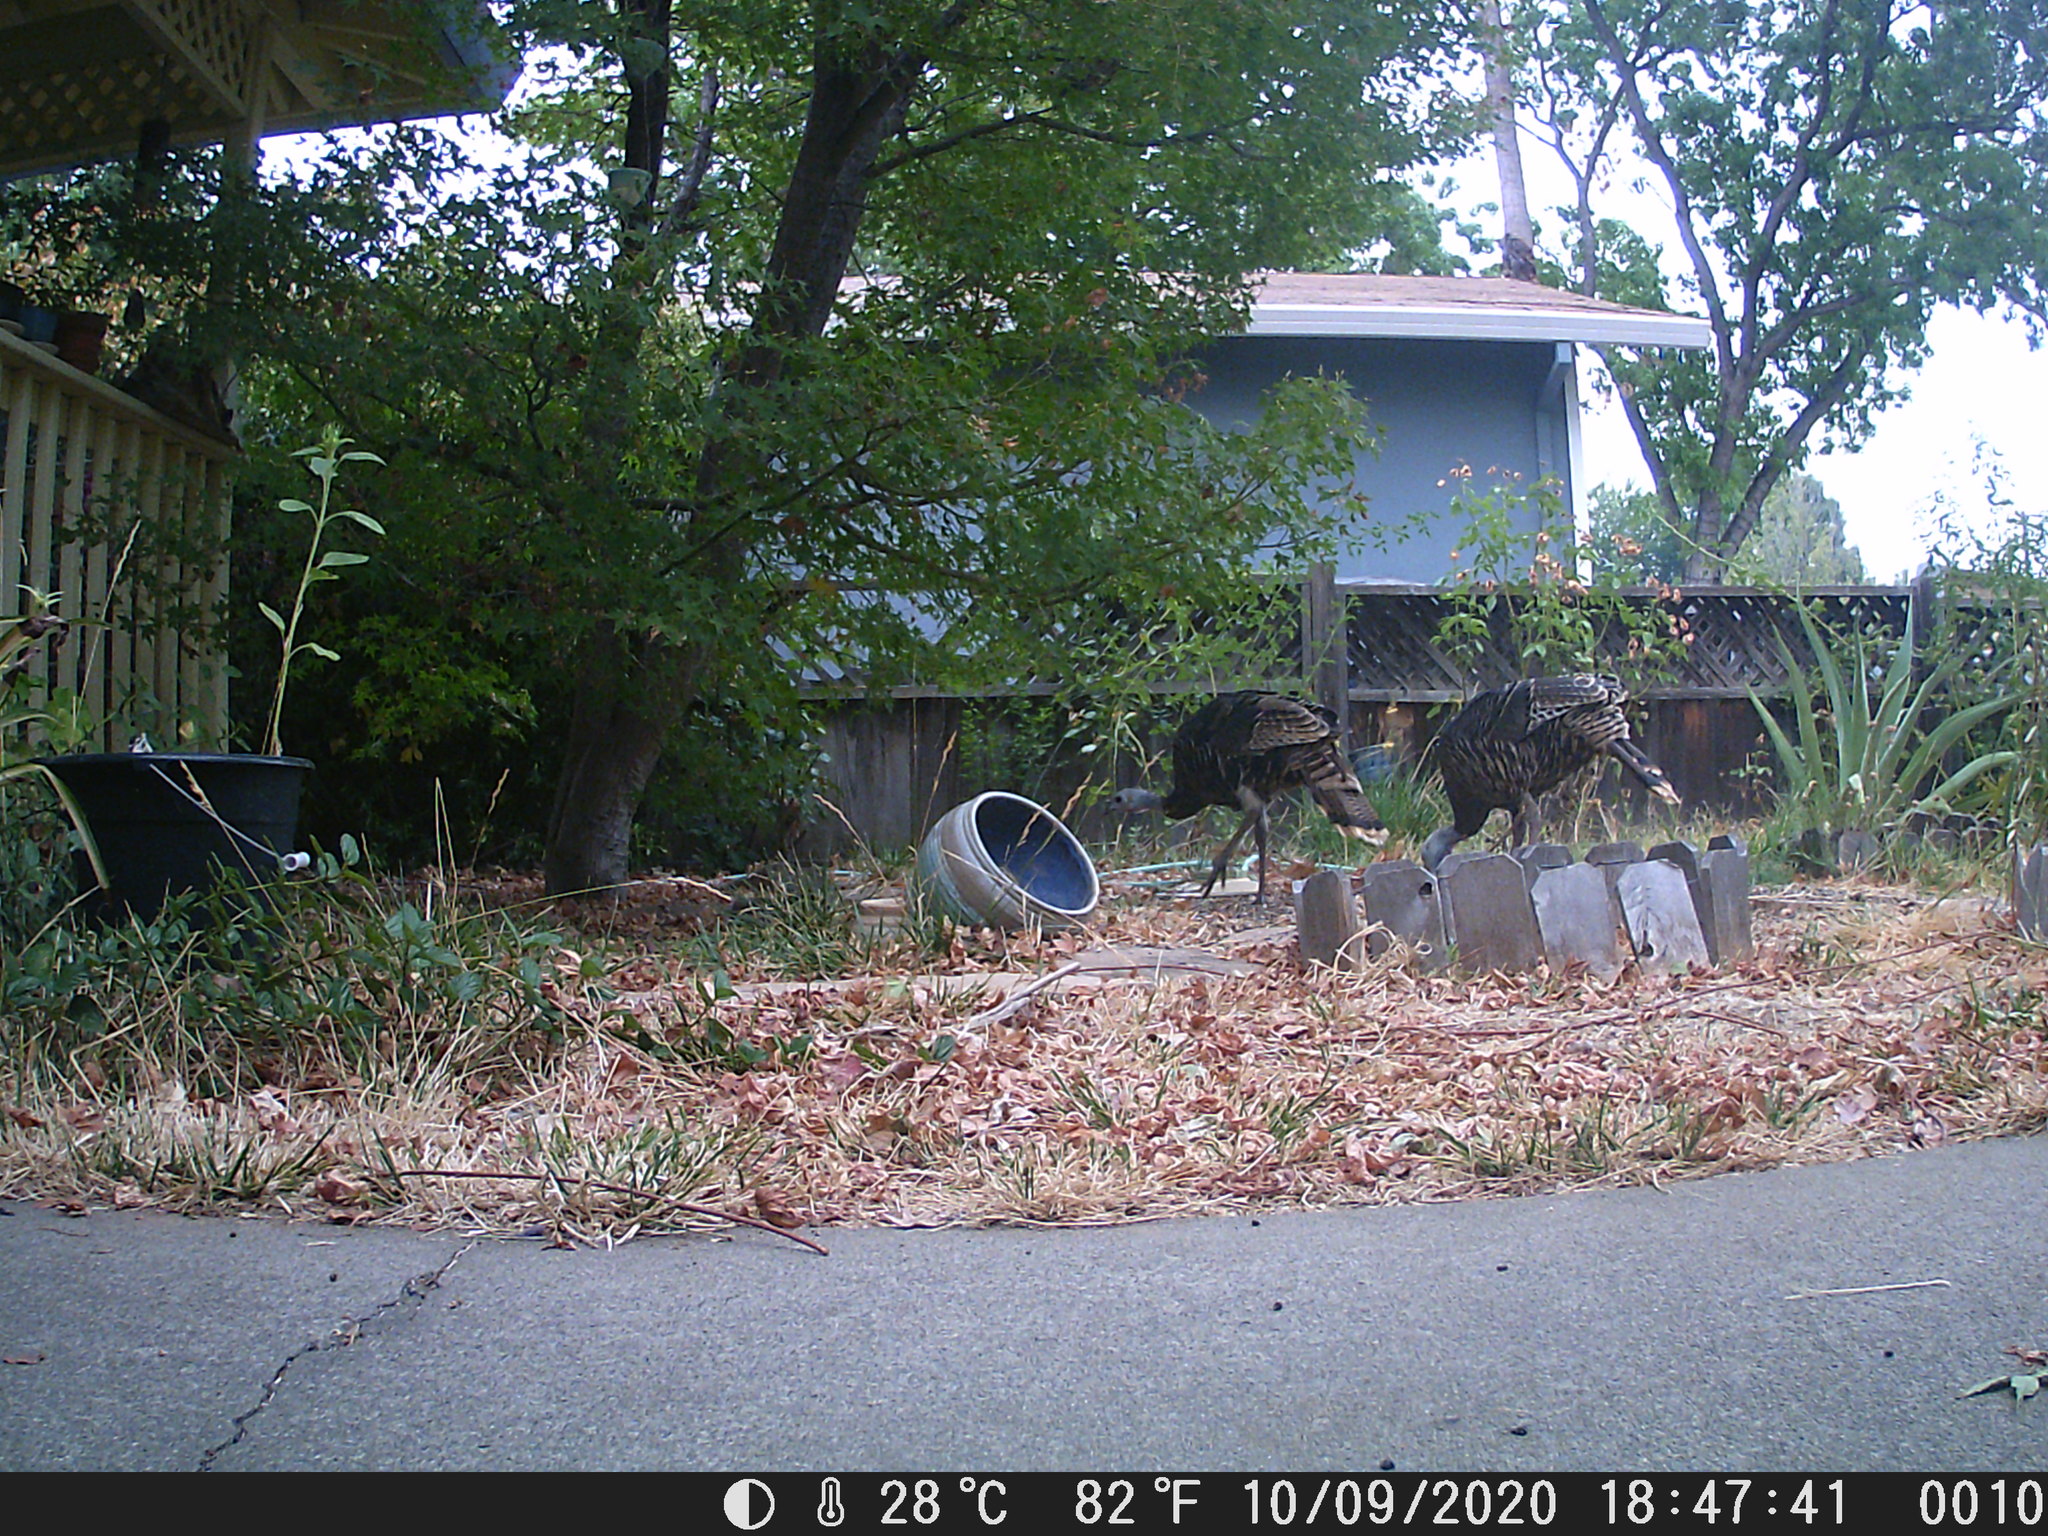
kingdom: Animalia
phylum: Chordata
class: Aves
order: Galliformes
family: Phasianidae
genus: Meleagris
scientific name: Meleagris gallopavo
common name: Wild turkey
